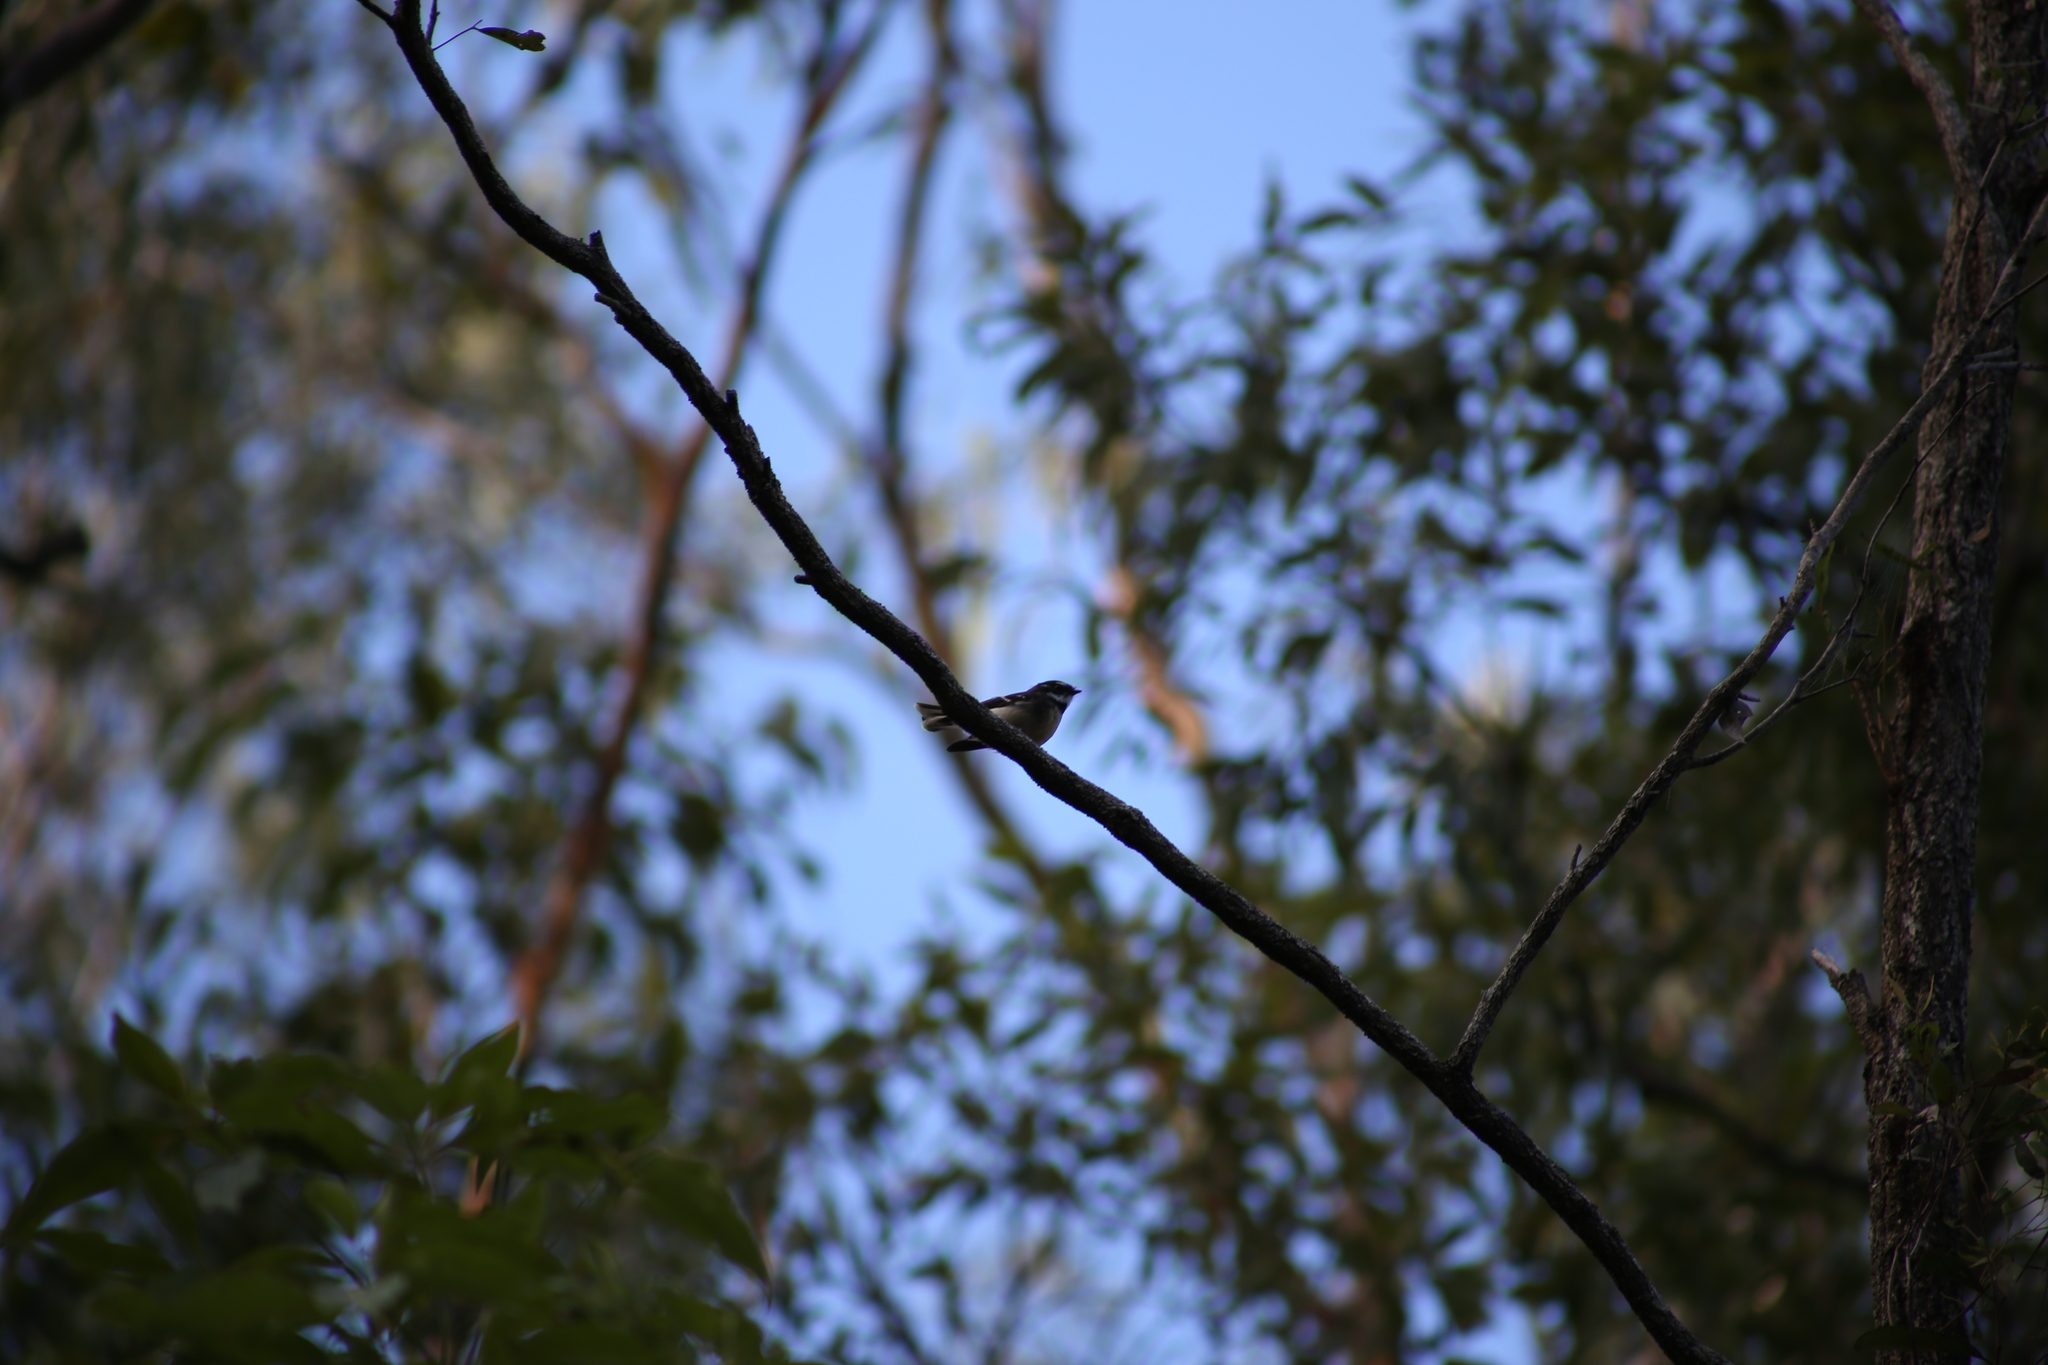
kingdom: Animalia
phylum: Chordata
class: Aves
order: Passeriformes
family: Rhipiduridae
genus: Rhipidura
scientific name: Rhipidura albiscapa
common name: Grey fantail
